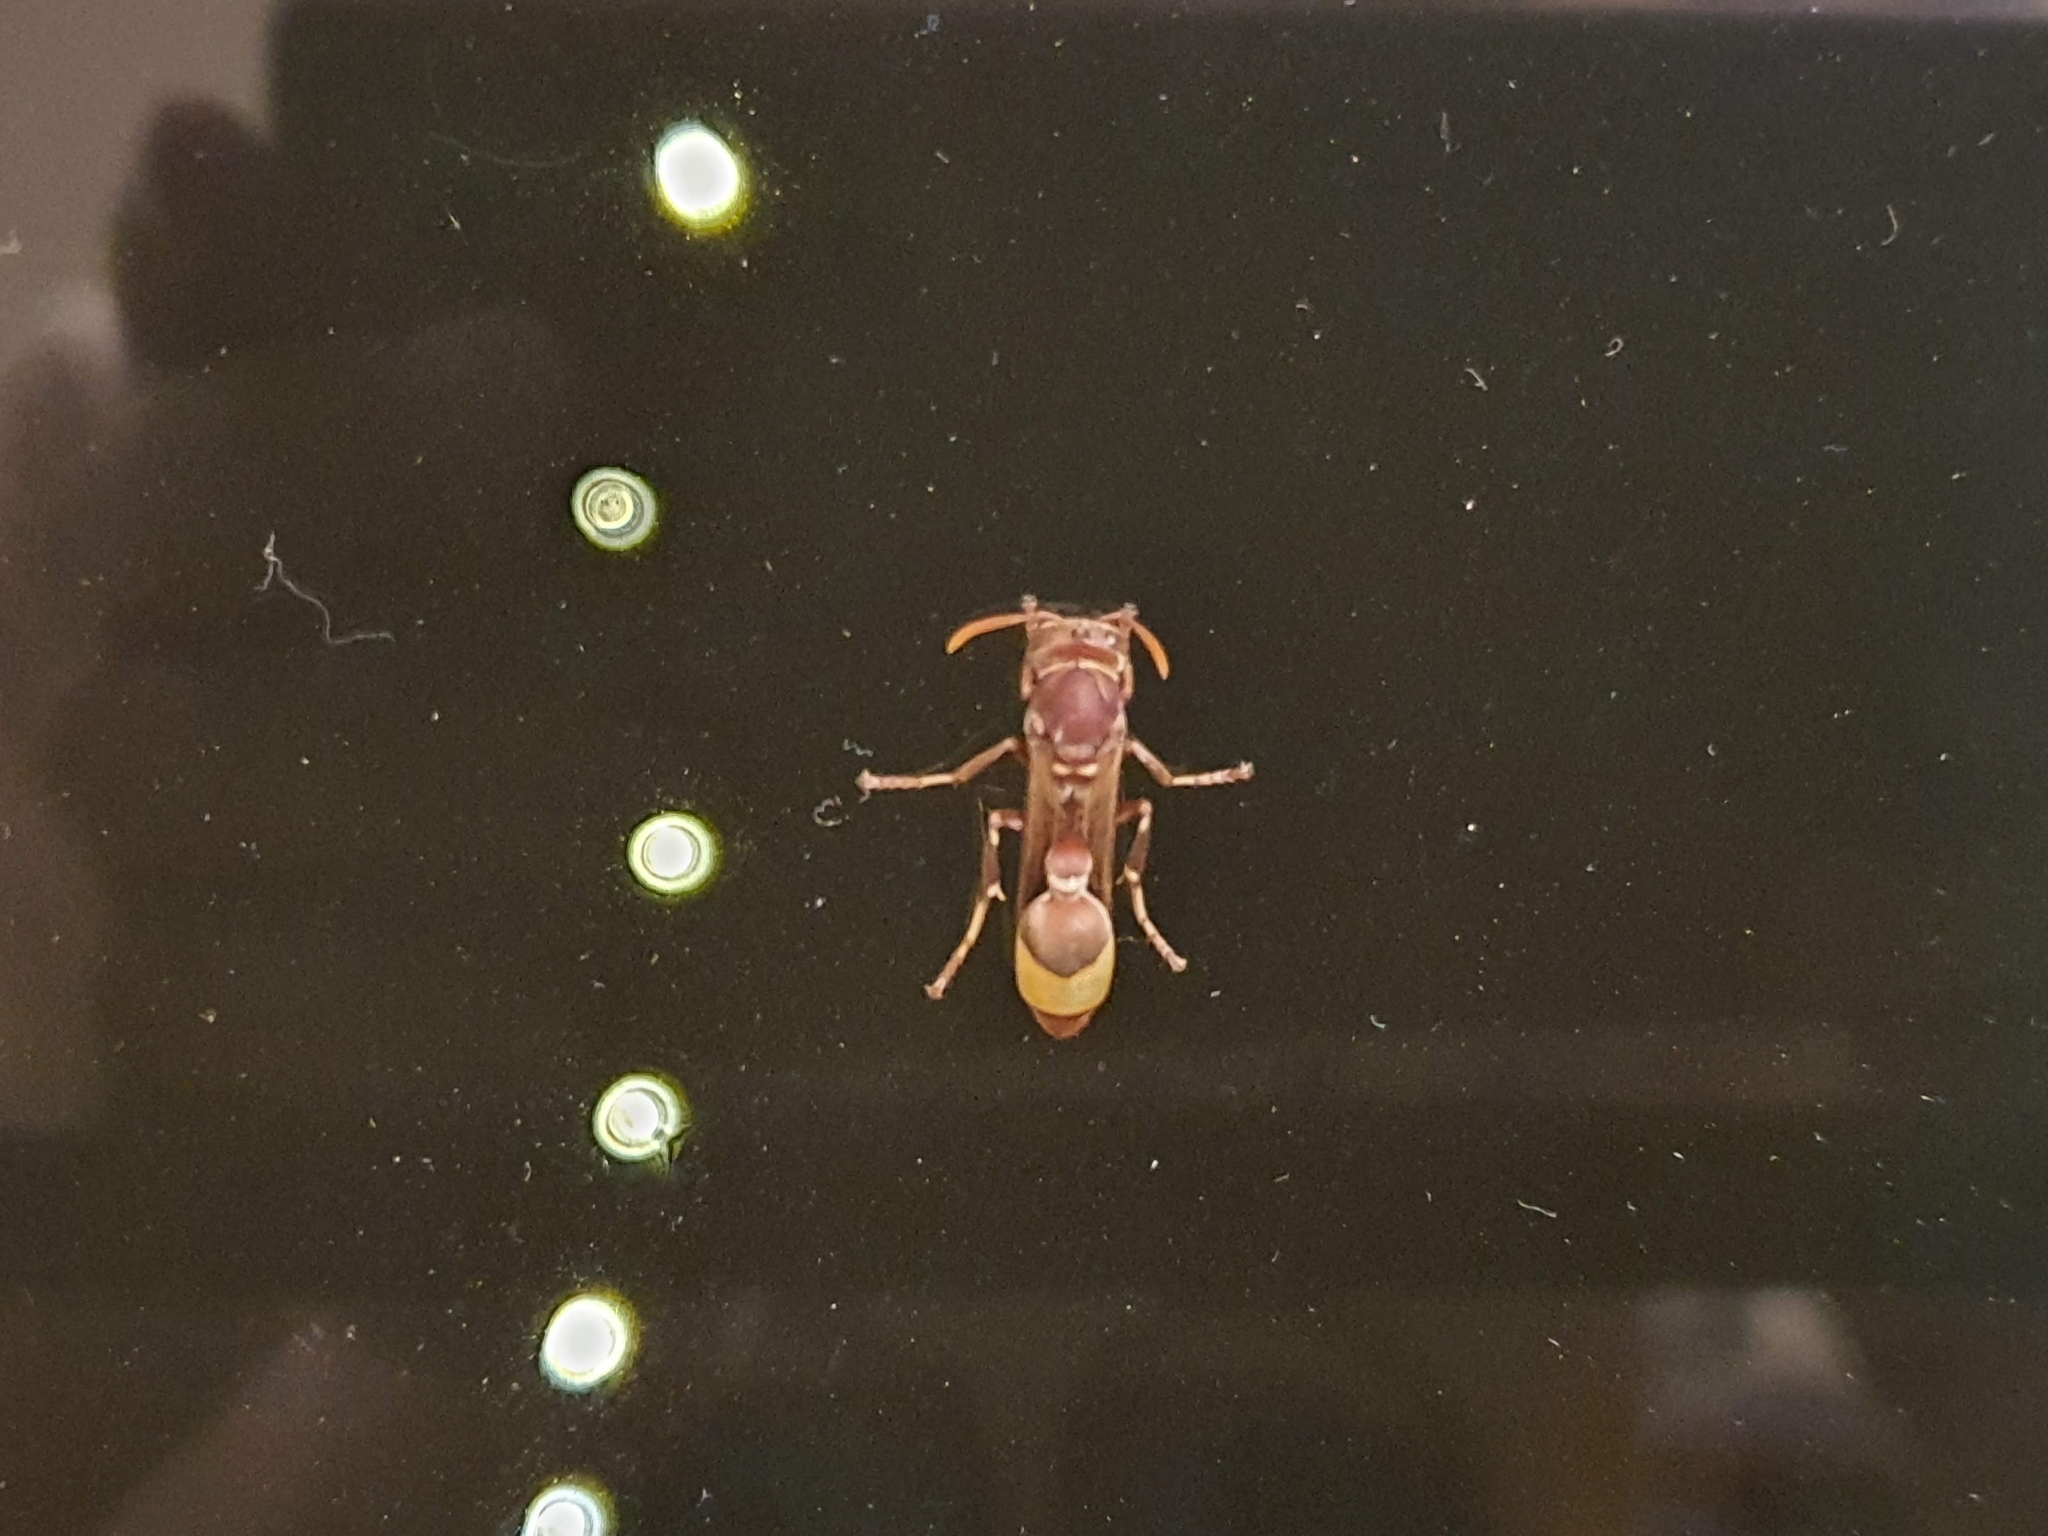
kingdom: Animalia
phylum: Arthropoda
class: Insecta
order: Hymenoptera
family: Vespidae
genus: Ropalidia
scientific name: Ropalidia
